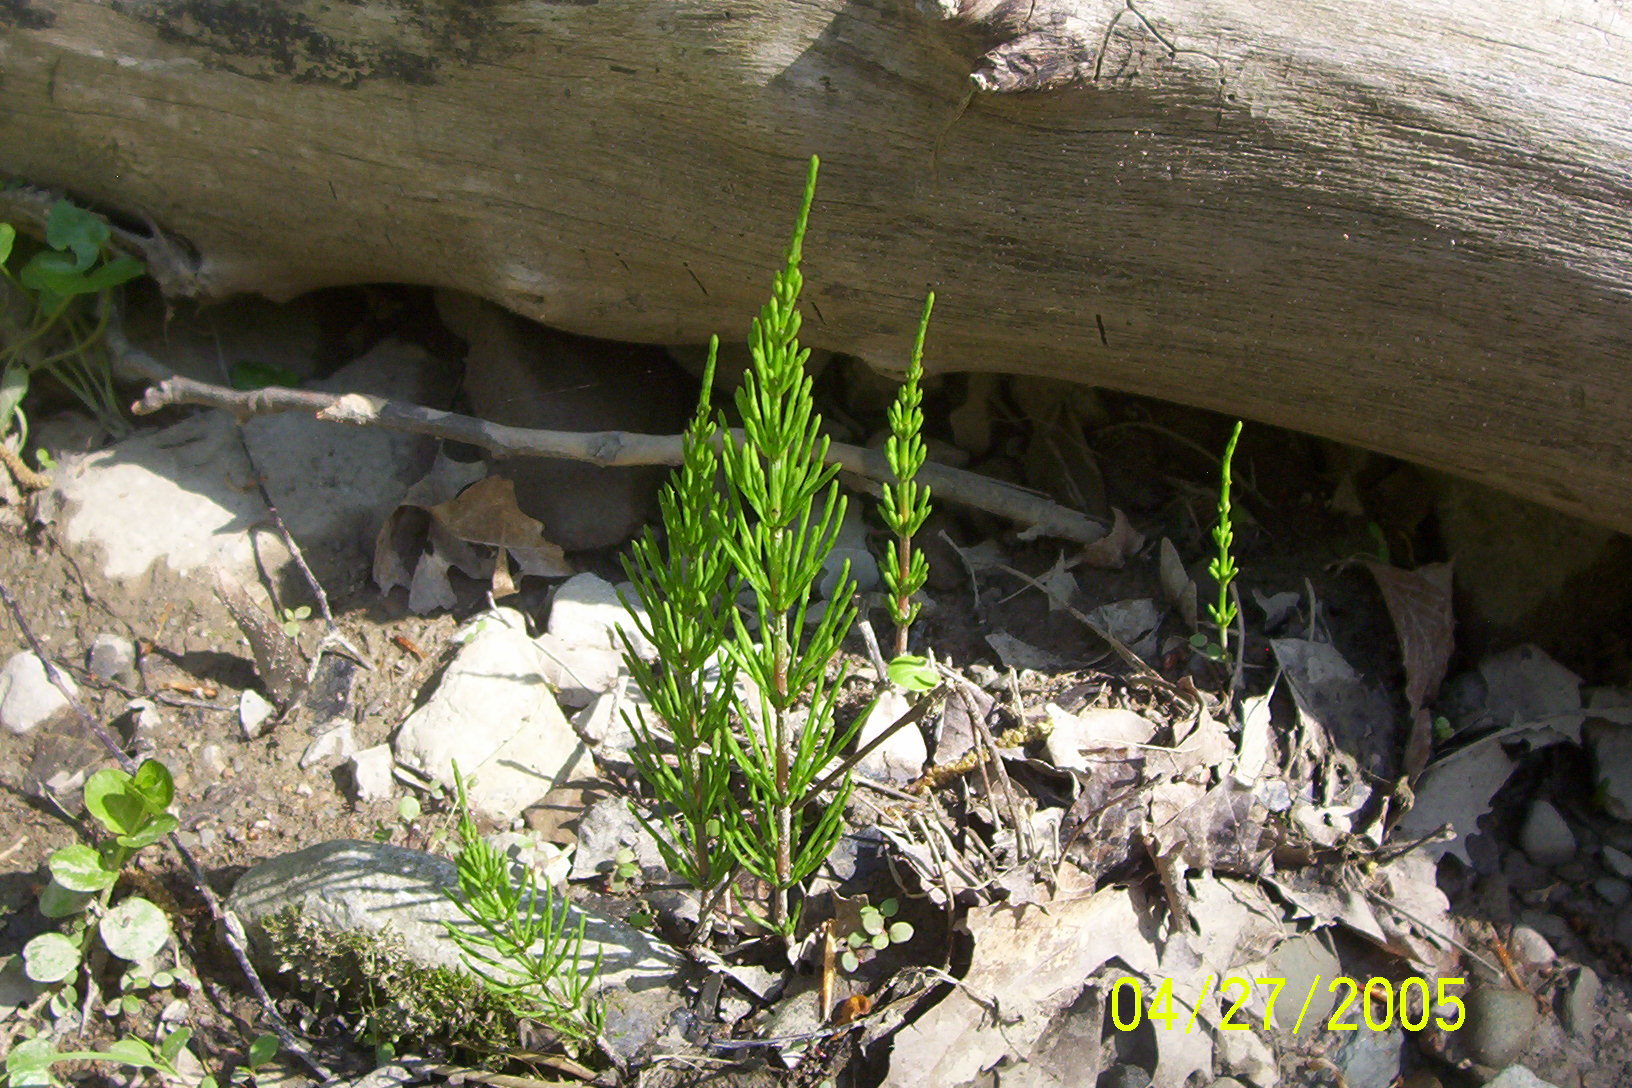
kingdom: Plantae
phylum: Tracheophyta
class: Polypodiopsida
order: Equisetales
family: Equisetaceae
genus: Equisetum
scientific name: Equisetum arvense
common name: Field horsetail
